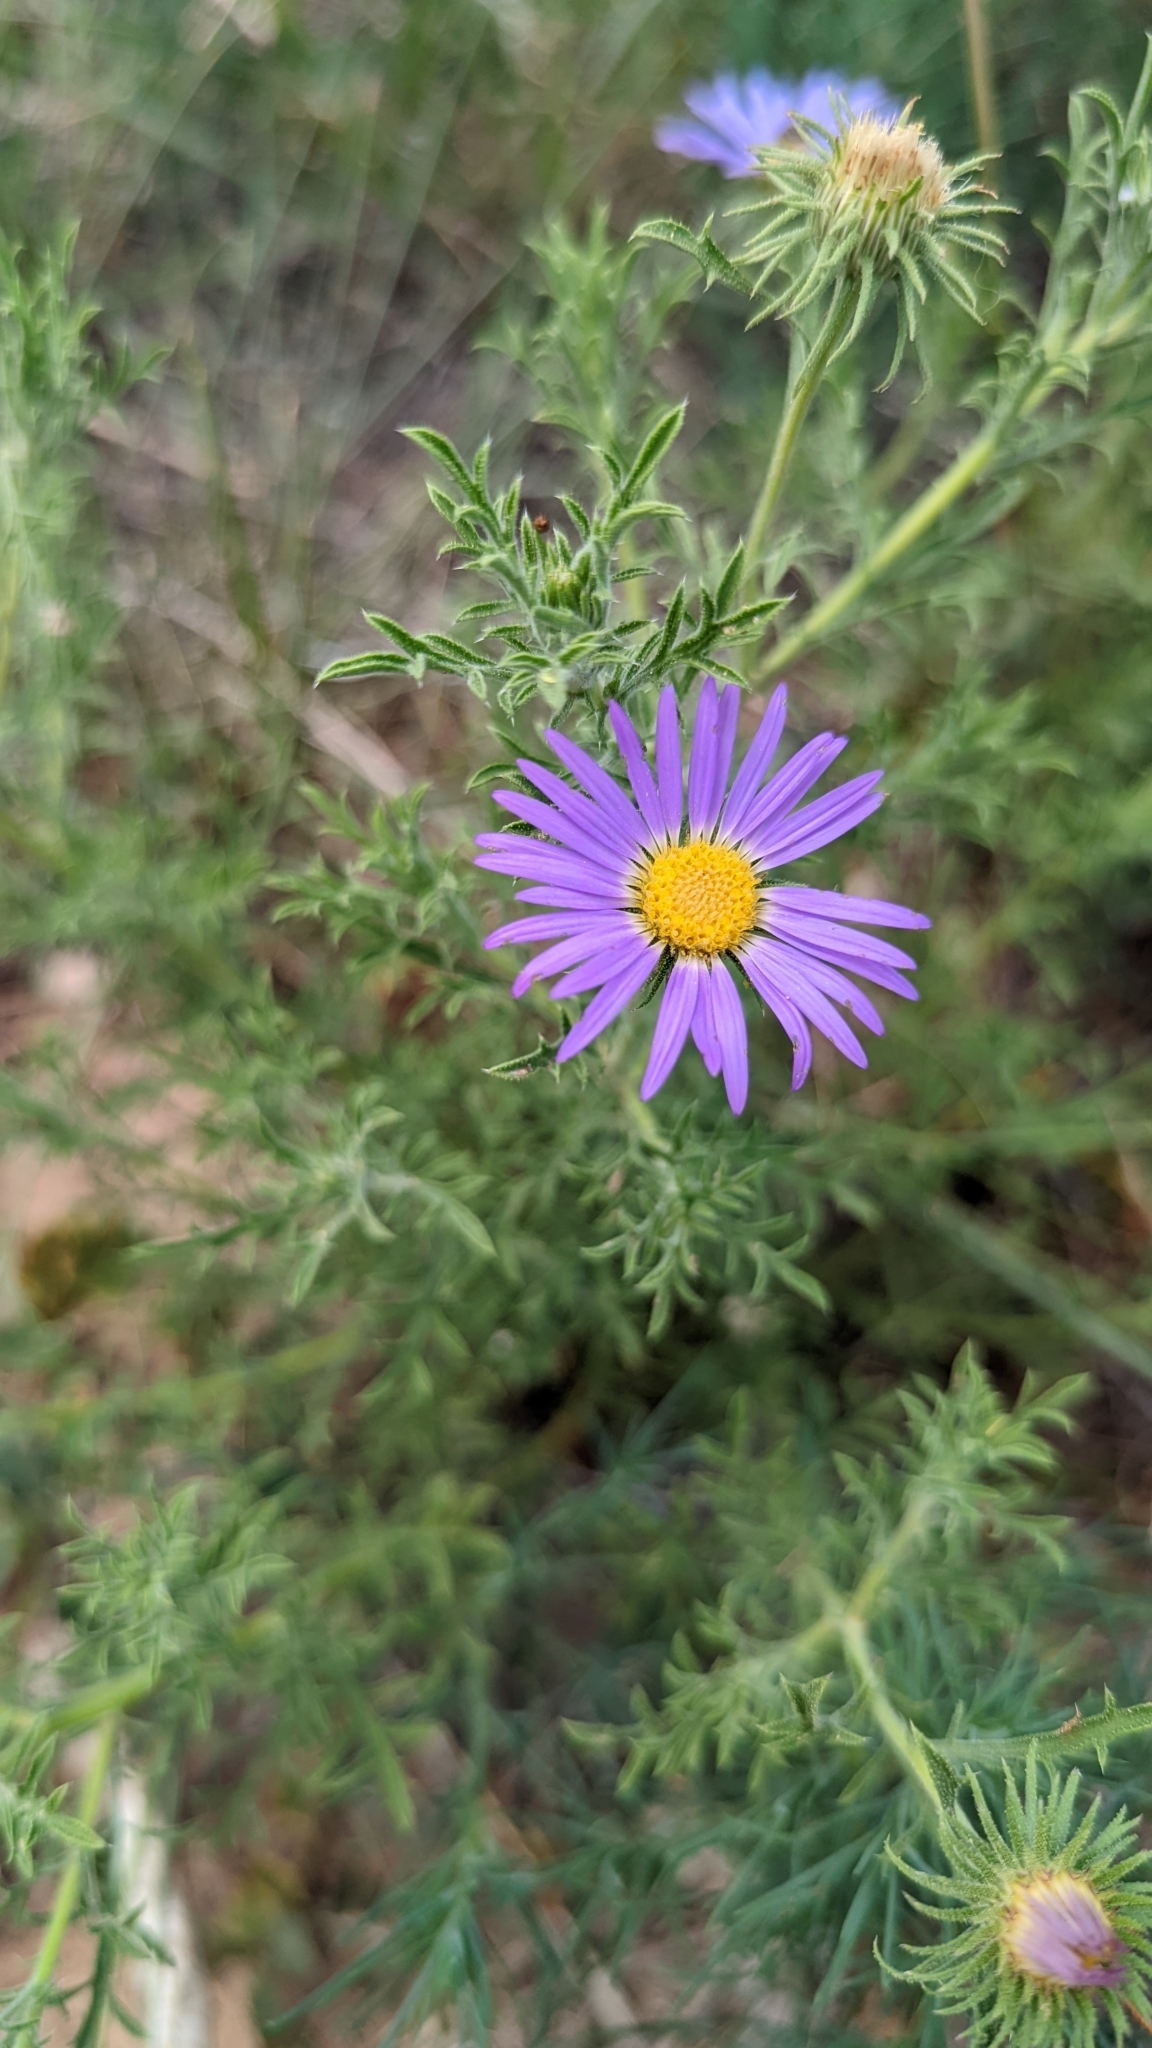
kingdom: Plantae
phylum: Tracheophyta
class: Magnoliopsida
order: Asterales
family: Asteraceae
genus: Machaeranthera
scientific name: Machaeranthera tanacetifolia
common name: Tansy-aster
